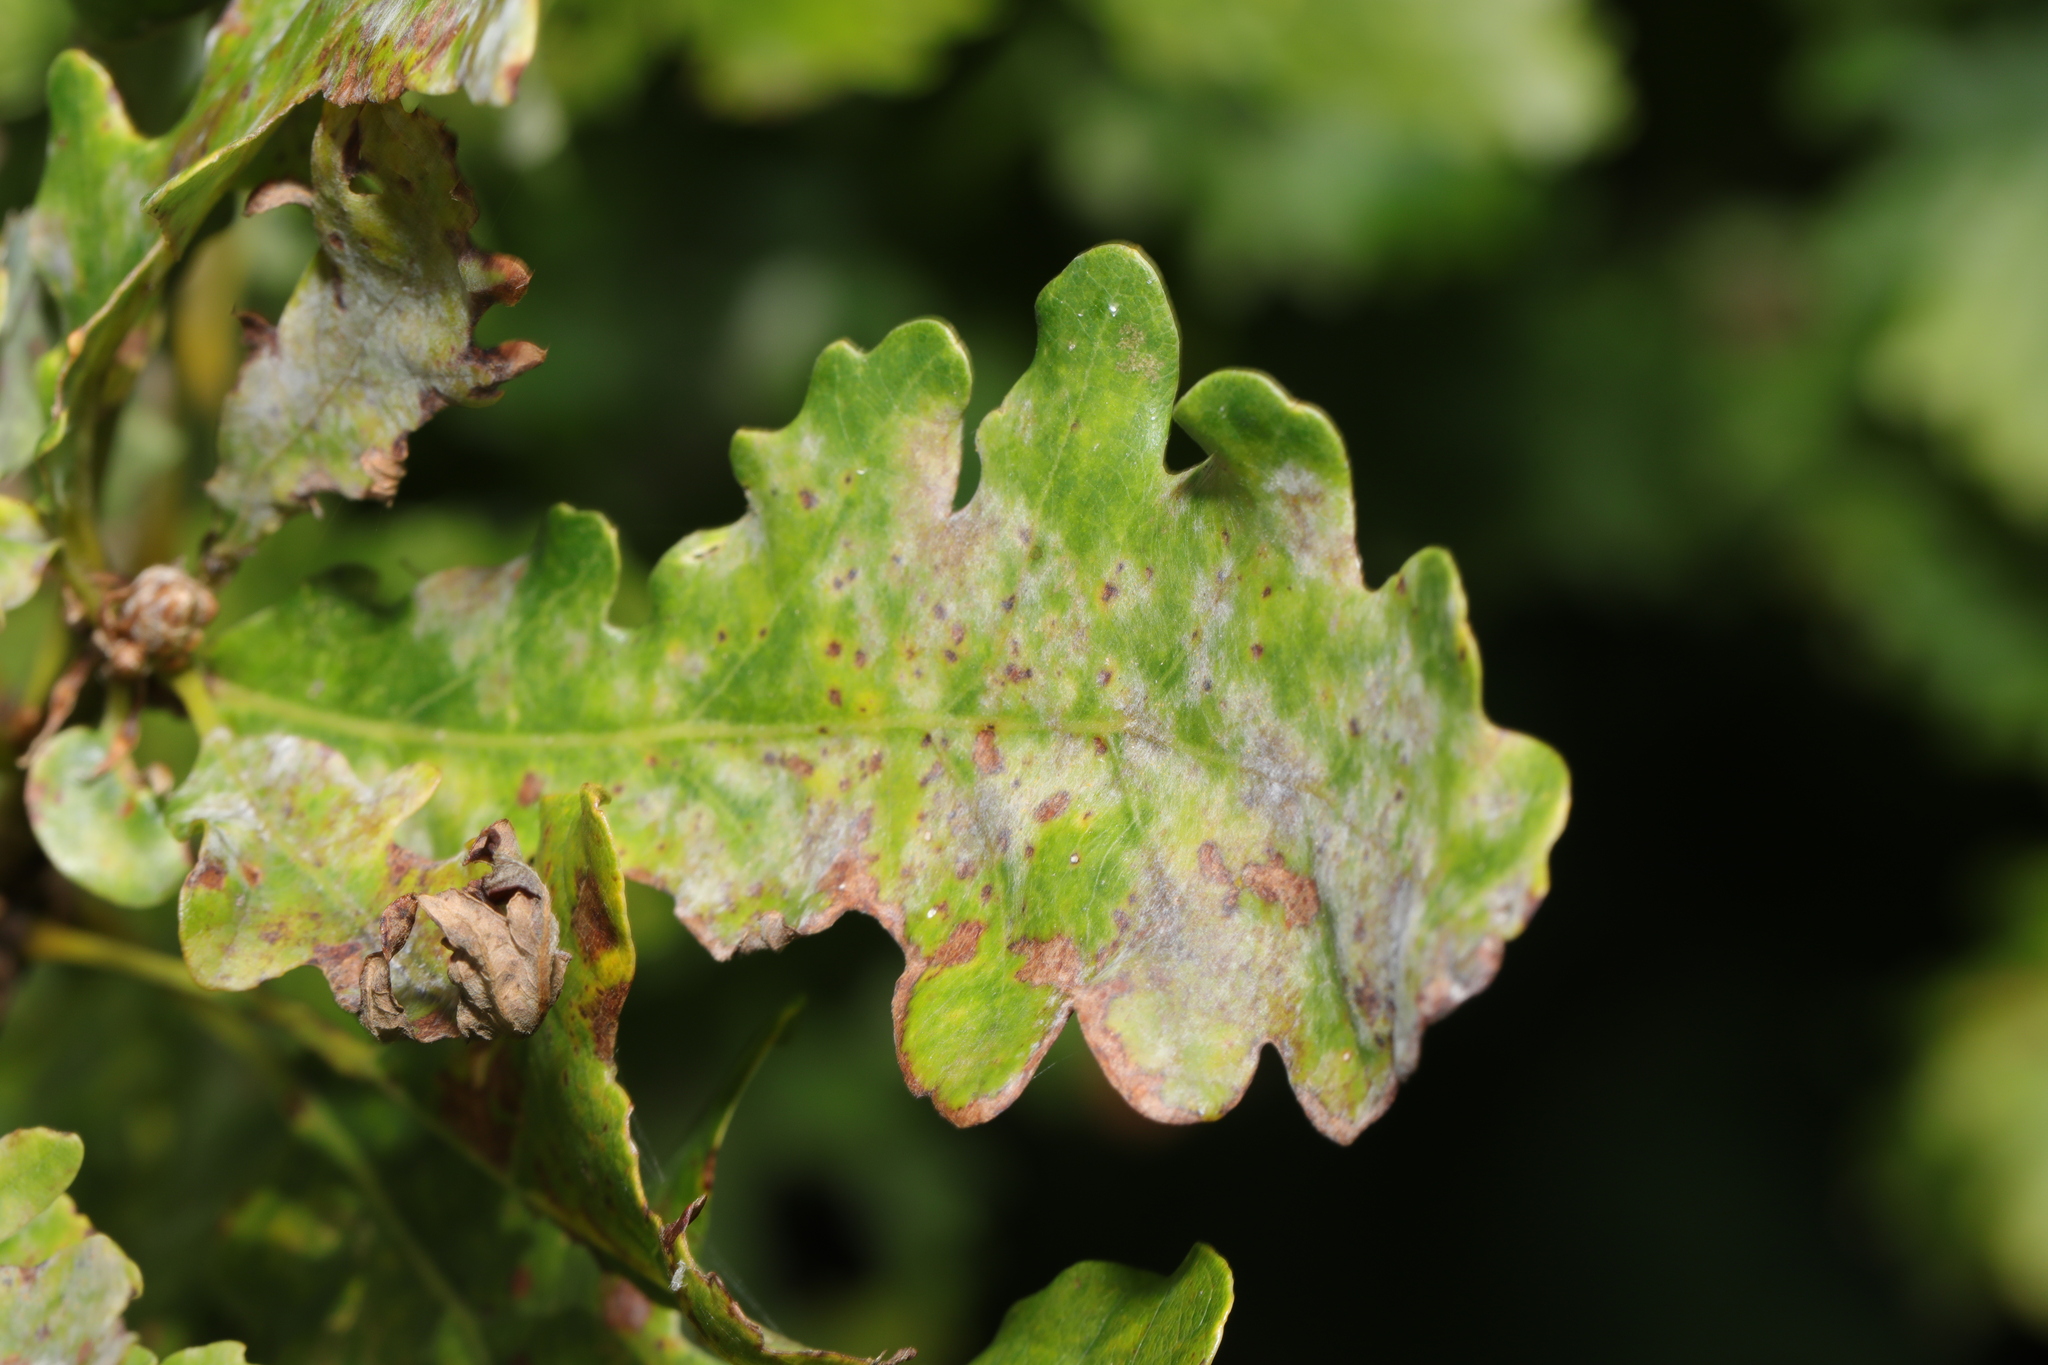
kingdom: Fungi
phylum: Ascomycota
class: Leotiomycetes
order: Helotiales
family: Erysiphaceae
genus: Erysiphe
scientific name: Erysiphe alphitoides
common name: Oak mildew
